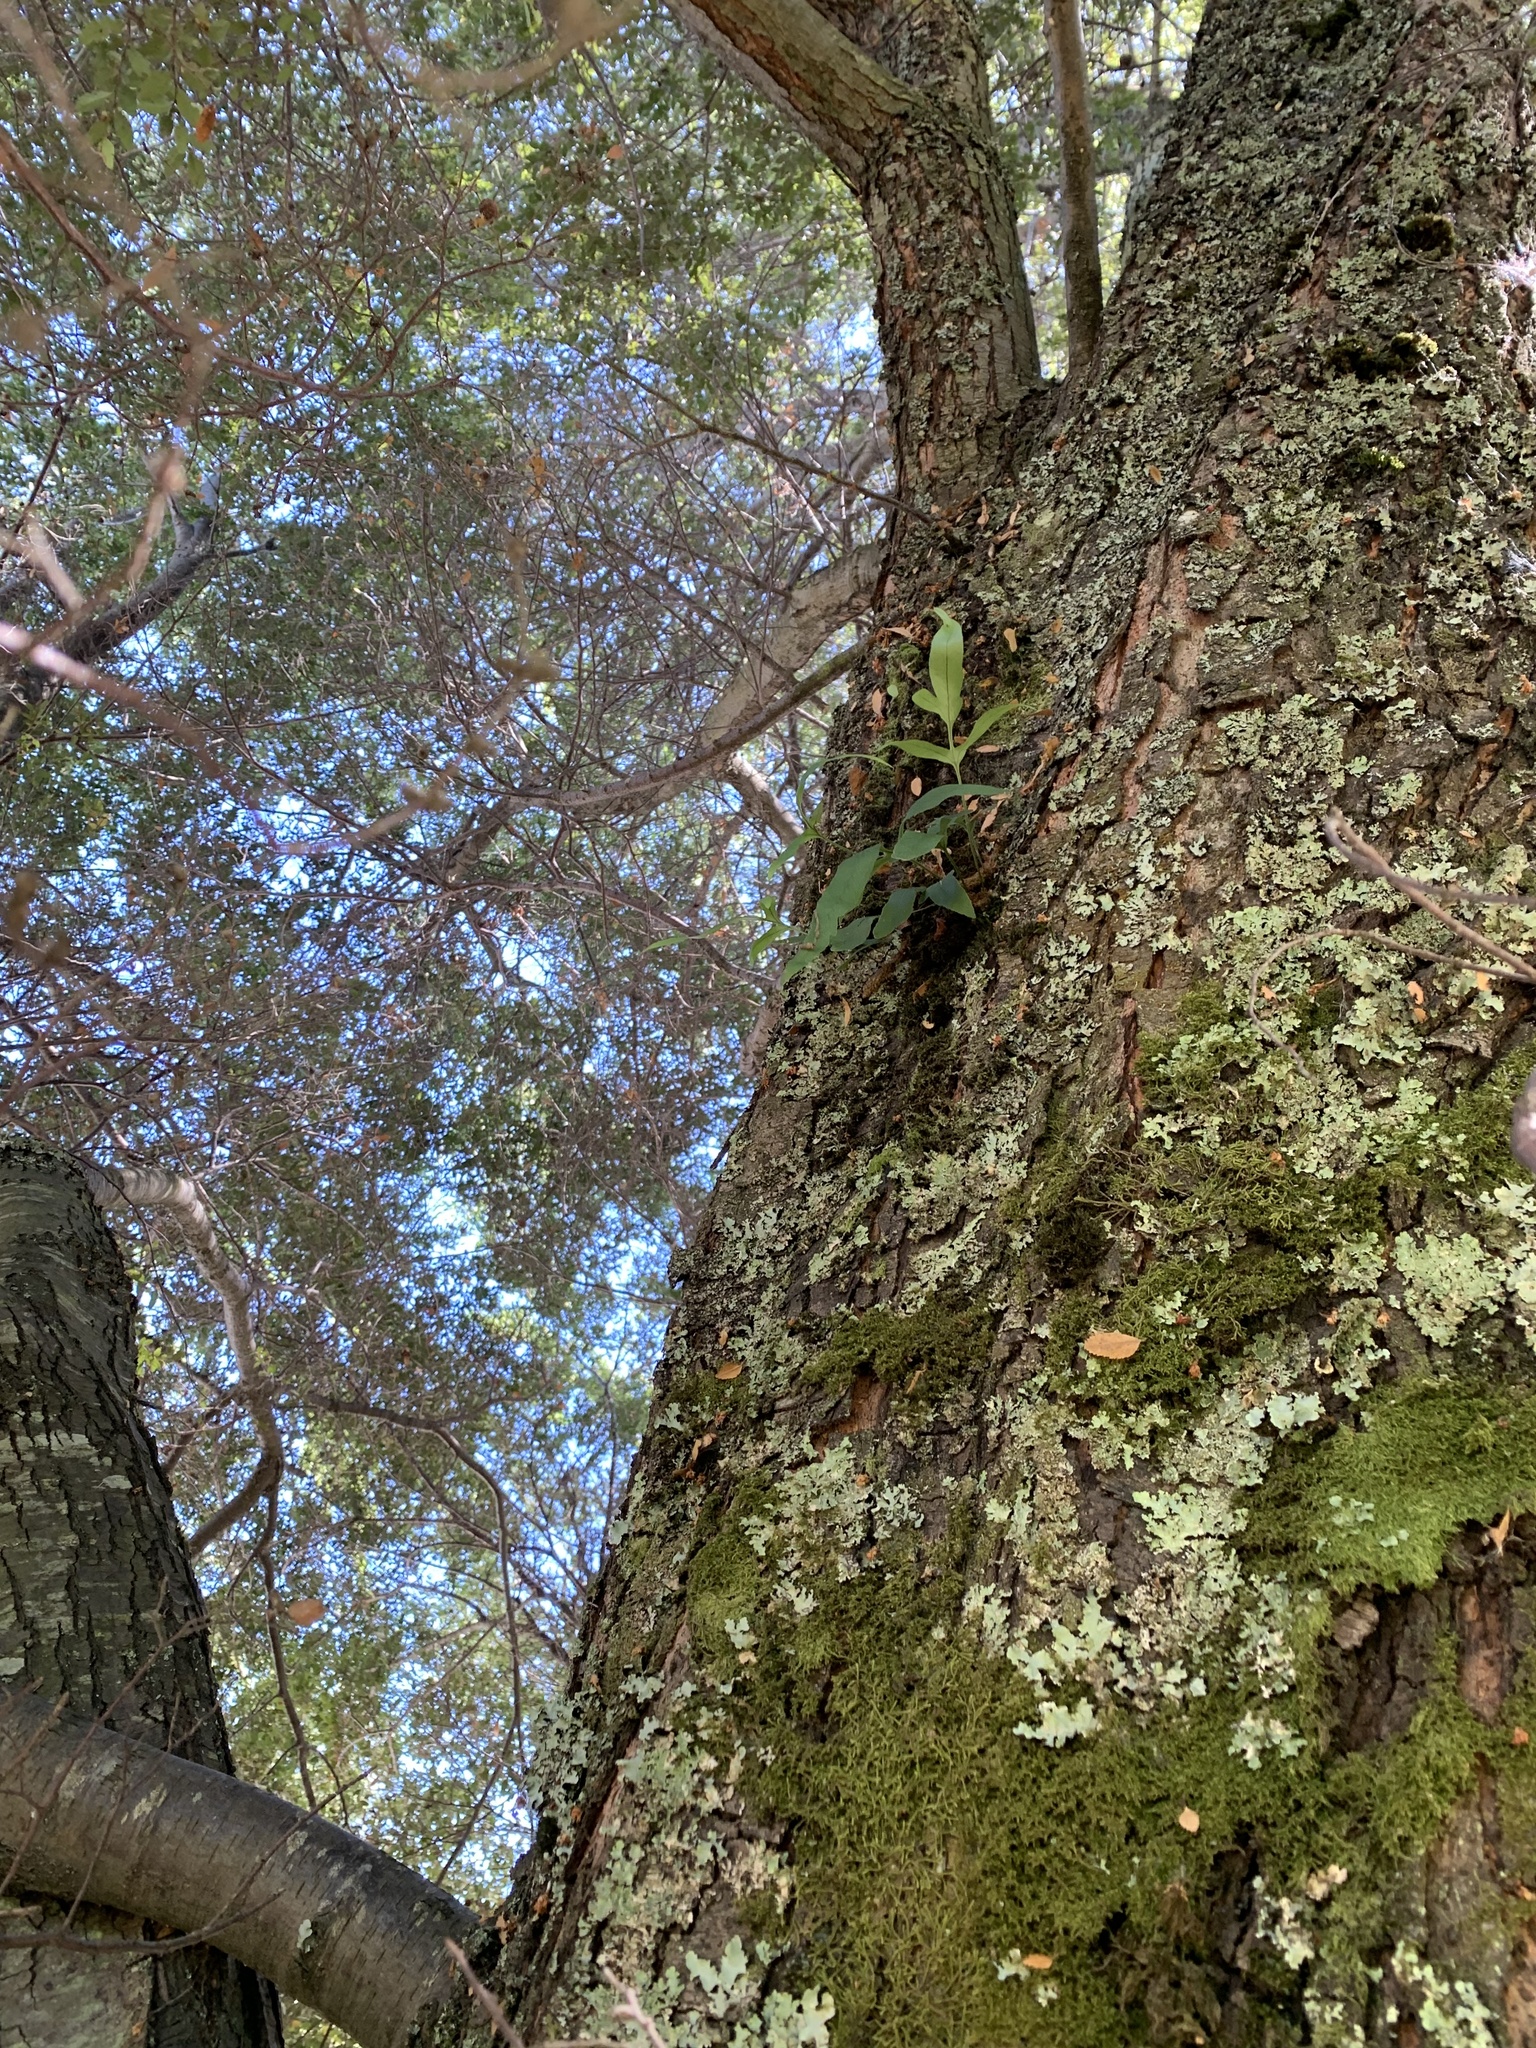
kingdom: Plantae
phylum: Tracheophyta
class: Polypodiopsida
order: Polypodiales
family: Polypodiaceae
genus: Synammia
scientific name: Synammia feuillei
